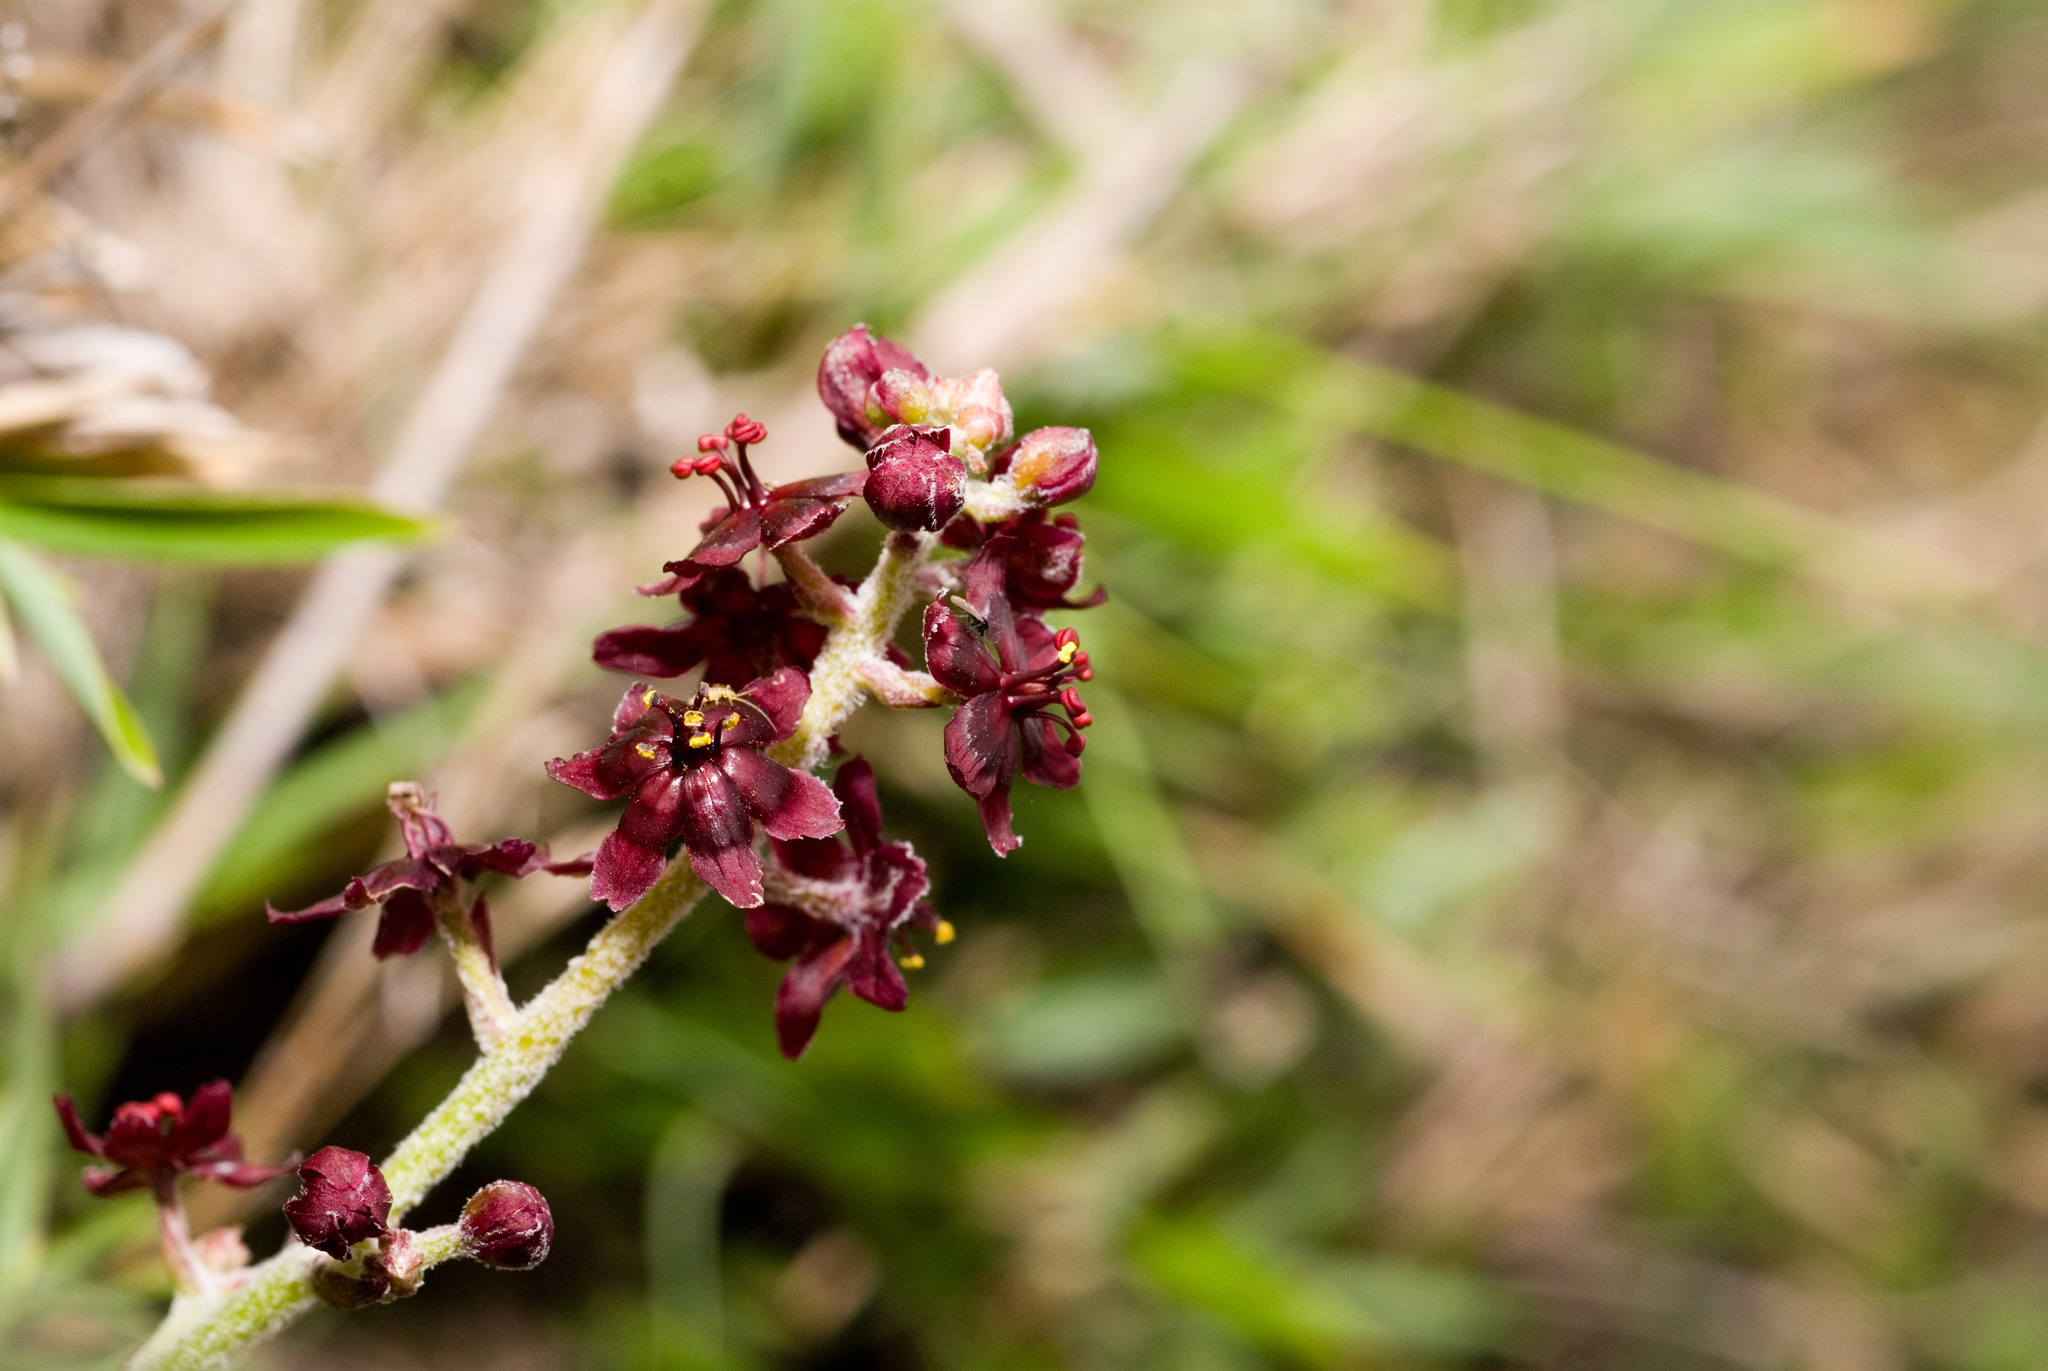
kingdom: Plantae
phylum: Tracheophyta
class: Liliopsida
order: Liliales
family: Melanthiaceae
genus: Veratrum
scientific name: Veratrum formosanum
